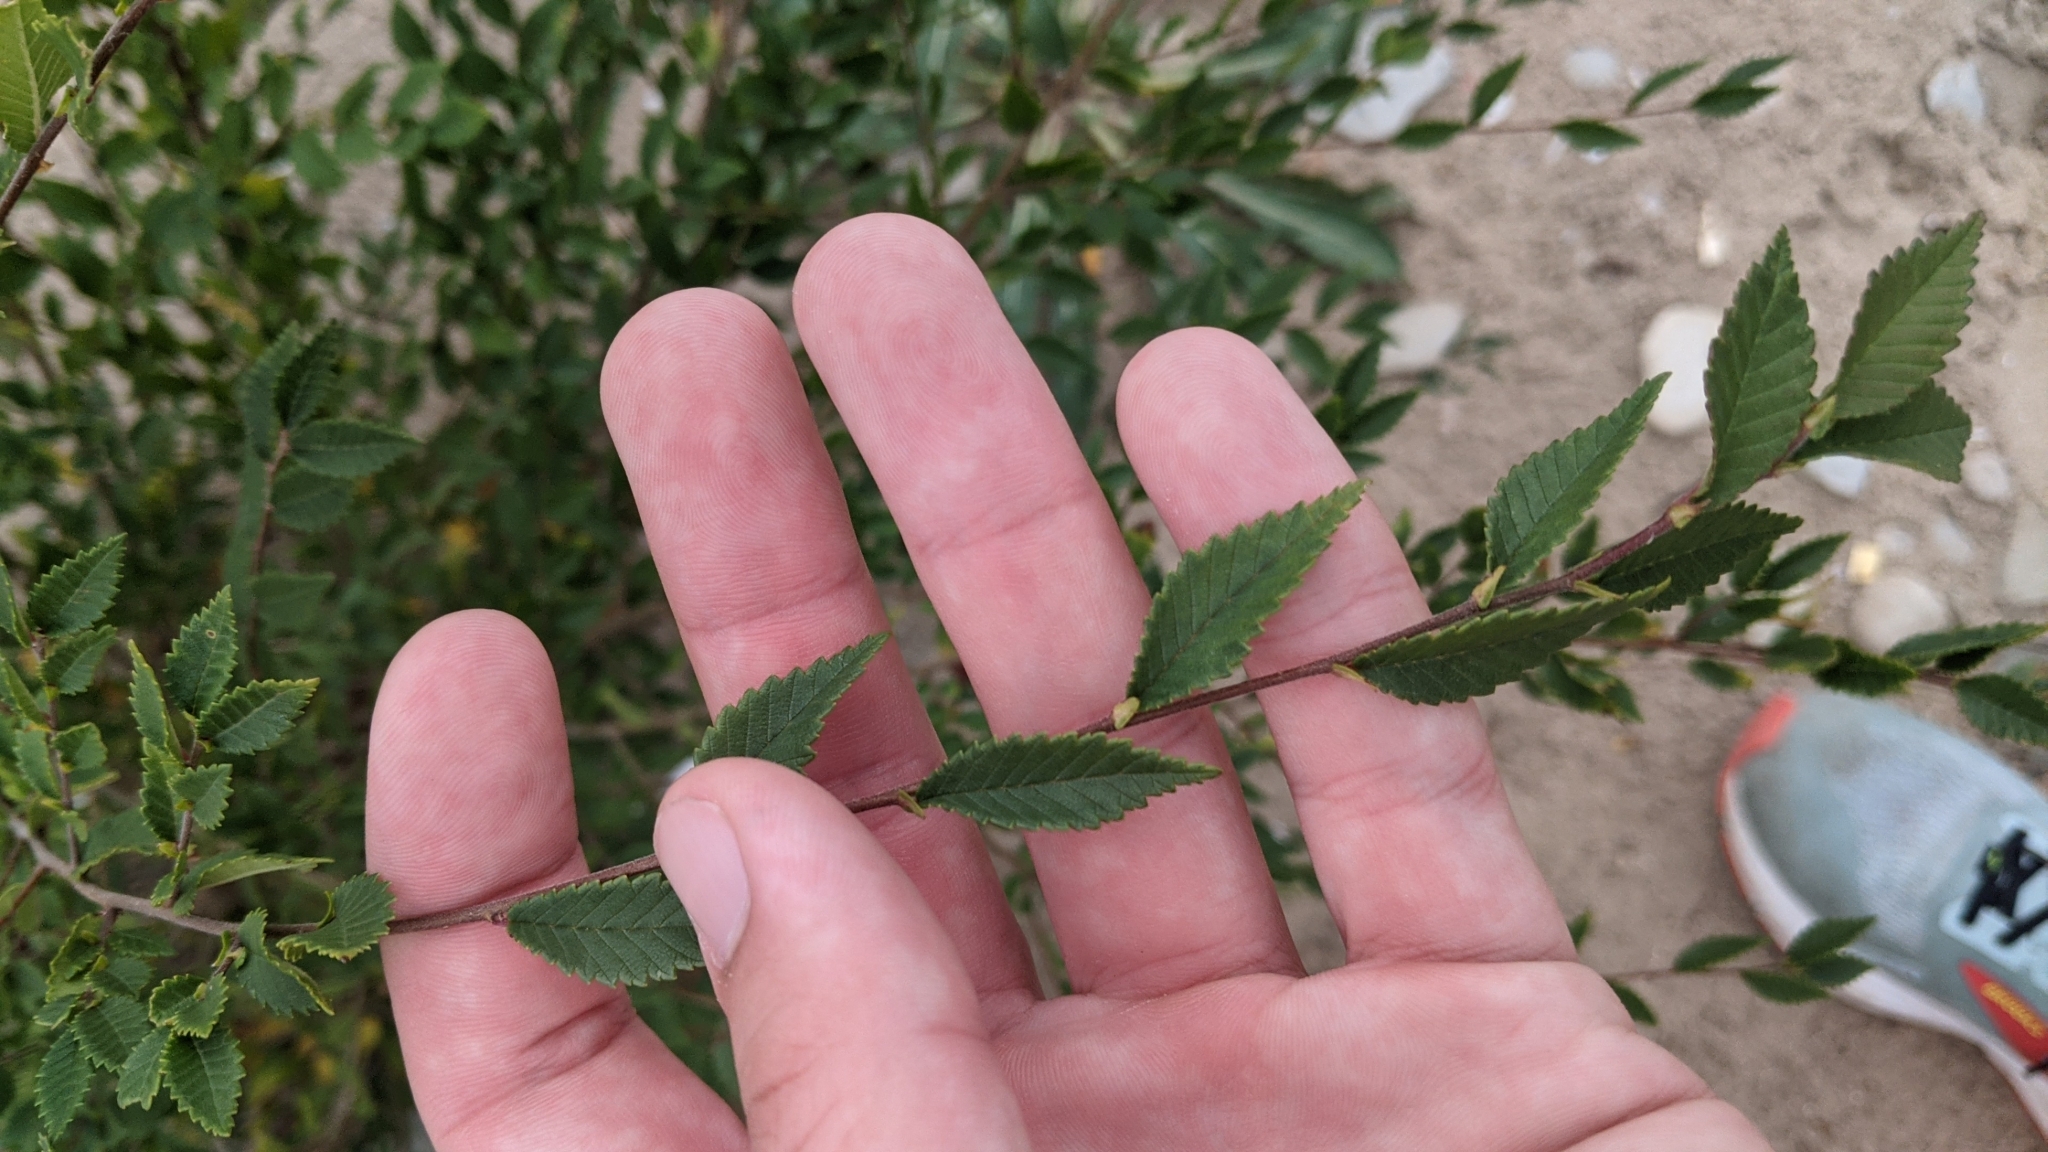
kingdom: Plantae
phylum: Tracheophyta
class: Magnoliopsida
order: Rosales
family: Ulmaceae
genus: Ulmus
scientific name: Ulmus pumila
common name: Siberian elm
